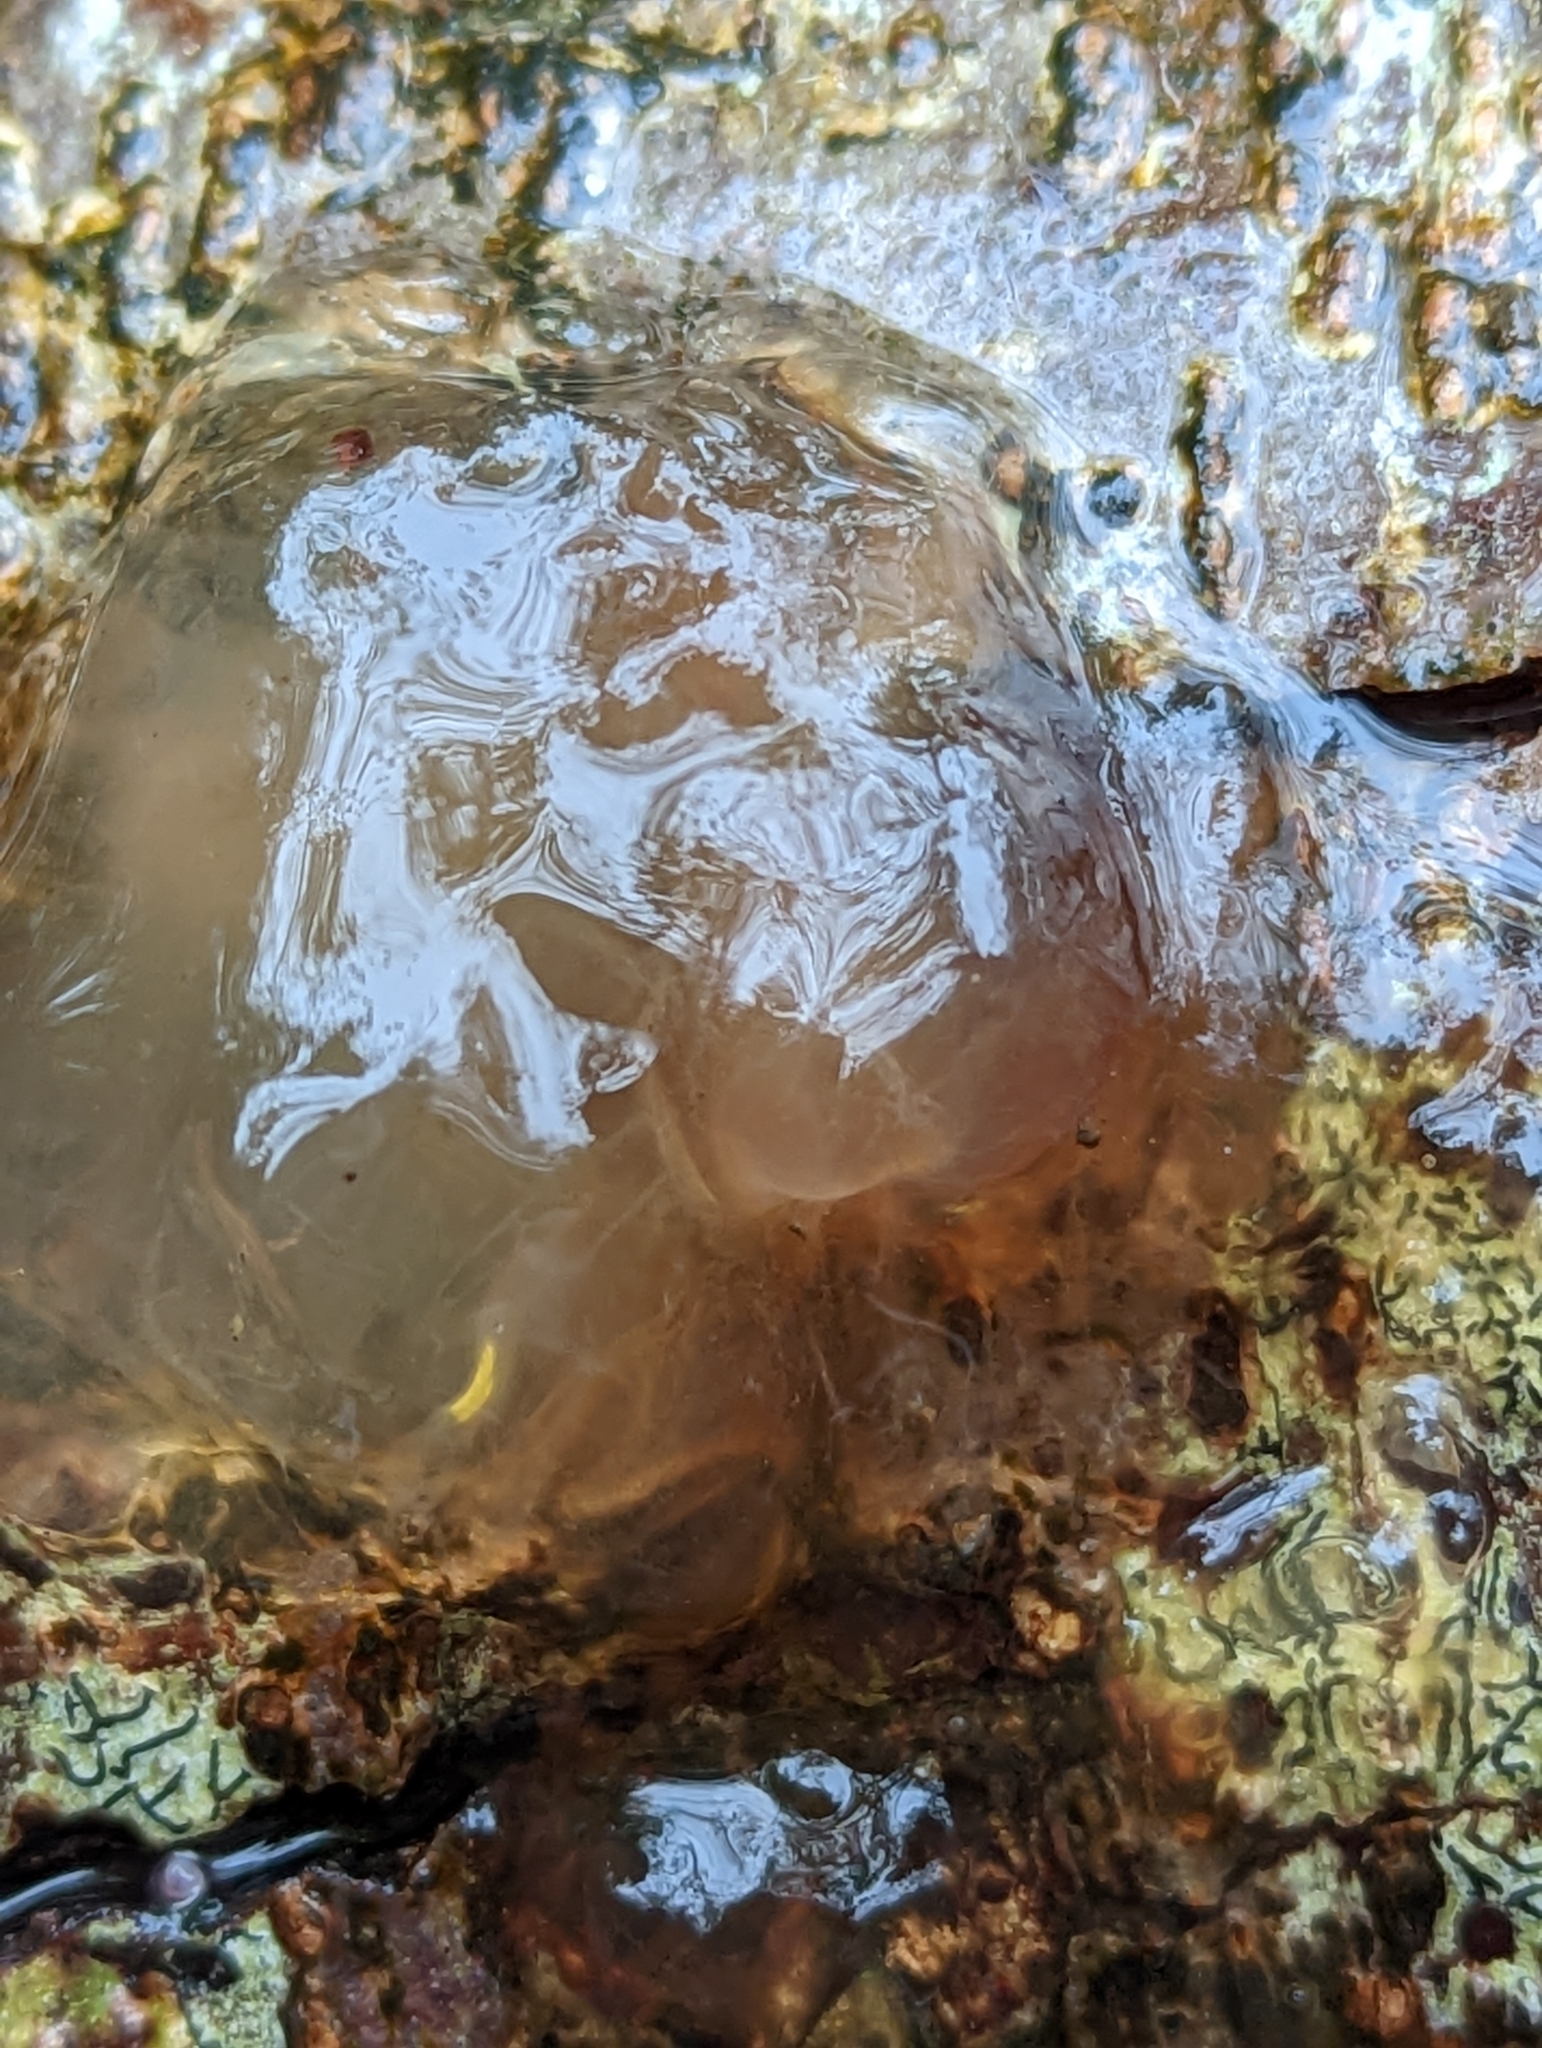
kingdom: Fungi
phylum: Basidiomycota
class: Agaricomycetes
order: Auriculariales
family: Hyaloriaceae
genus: Myxarium
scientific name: Myxarium nucleatum
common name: Crystal brain fungus
